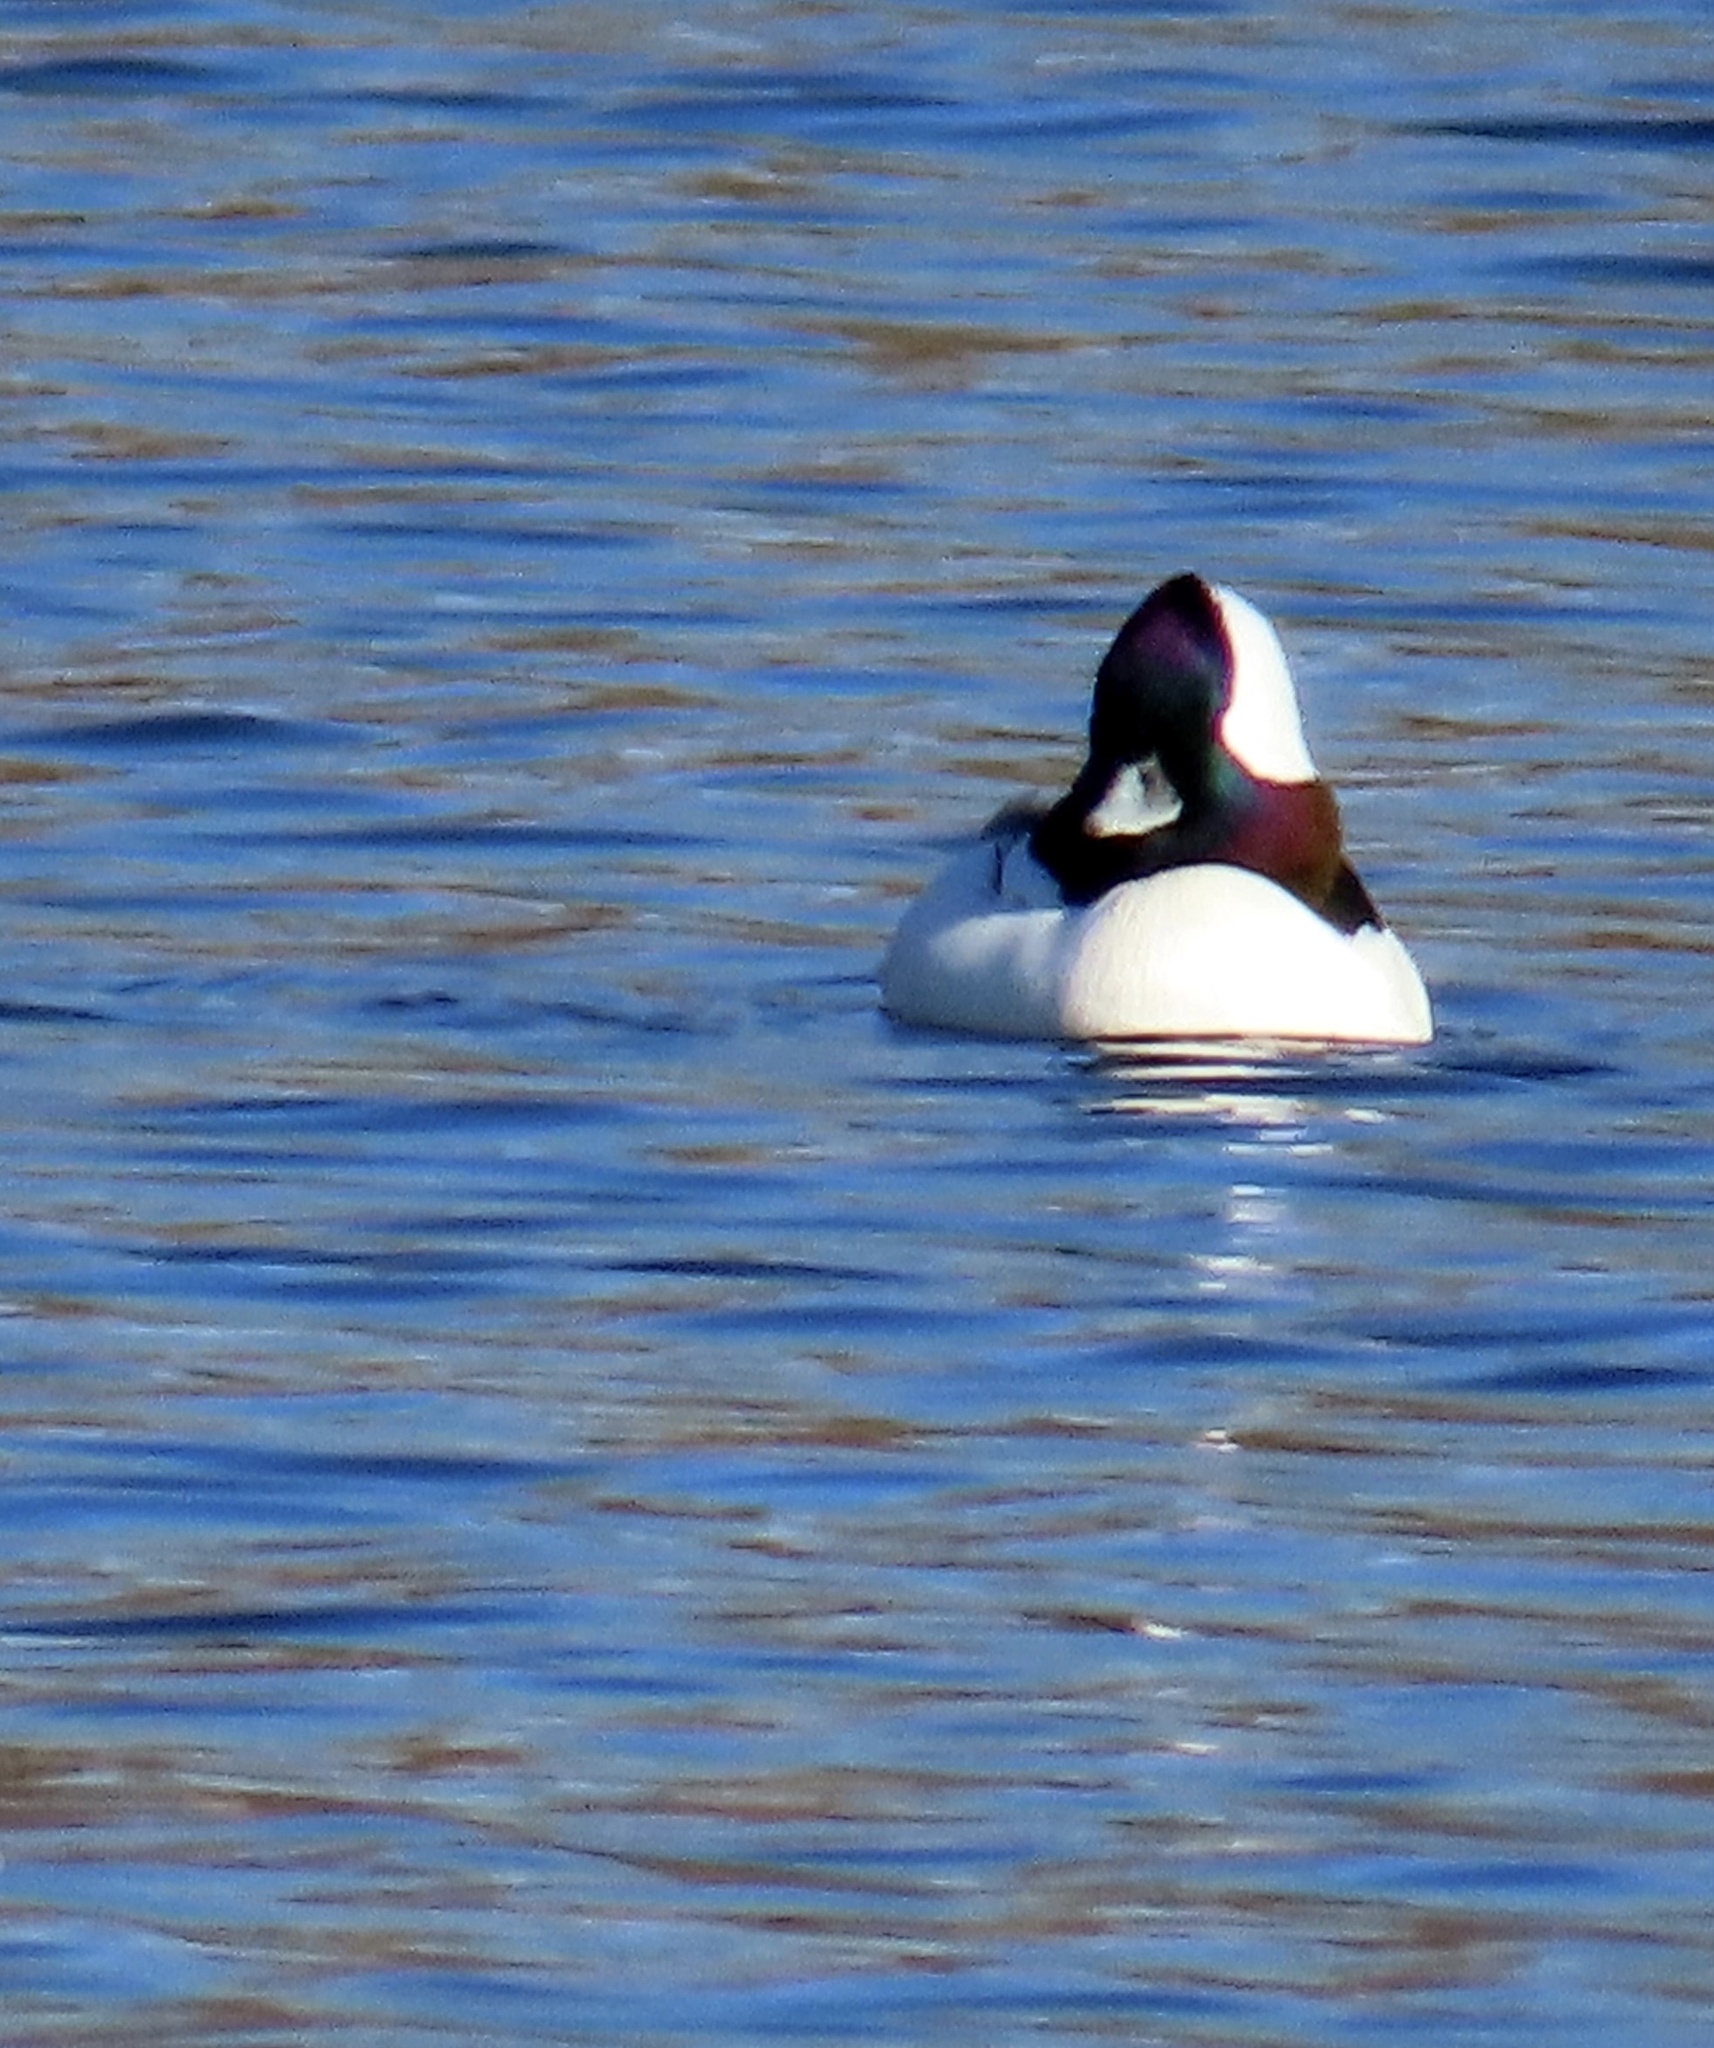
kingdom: Animalia
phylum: Chordata
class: Aves
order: Anseriformes
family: Anatidae
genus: Bucephala
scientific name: Bucephala albeola
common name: Bufflehead
